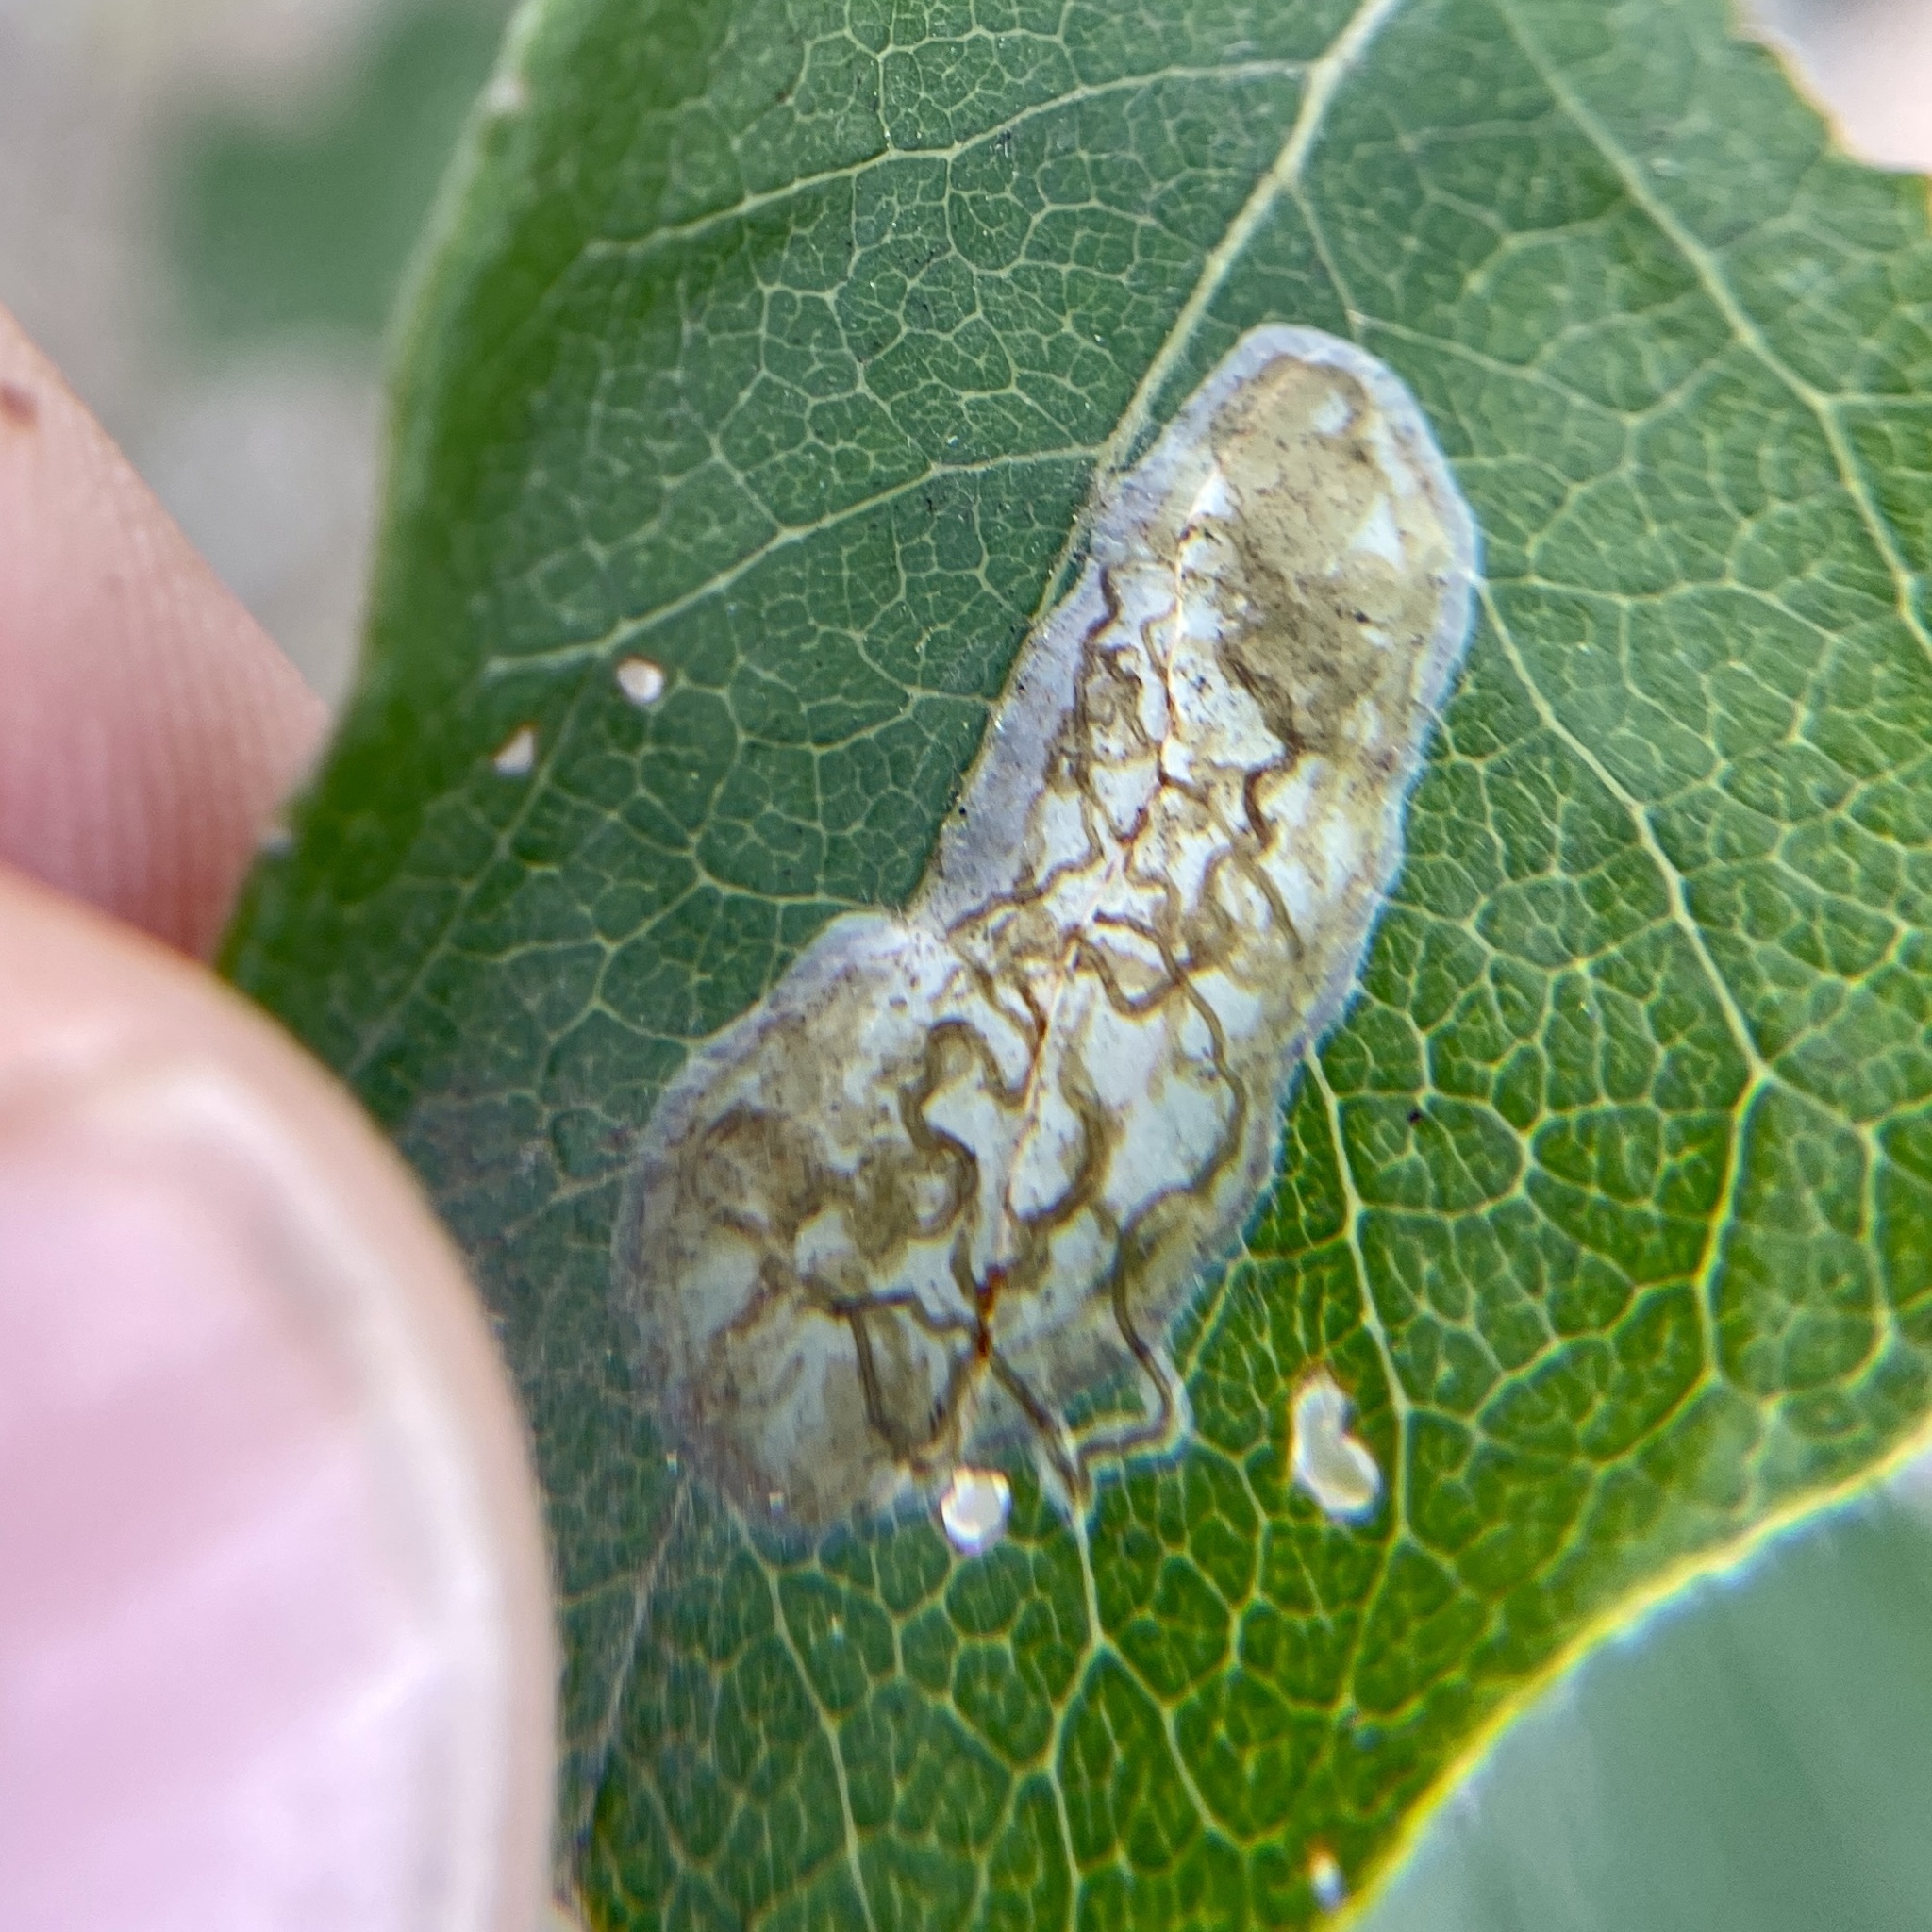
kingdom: Animalia
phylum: Arthropoda
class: Insecta
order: Lepidoptera
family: Gracillariidae
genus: Parectopa
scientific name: Parectopa bumeliella
